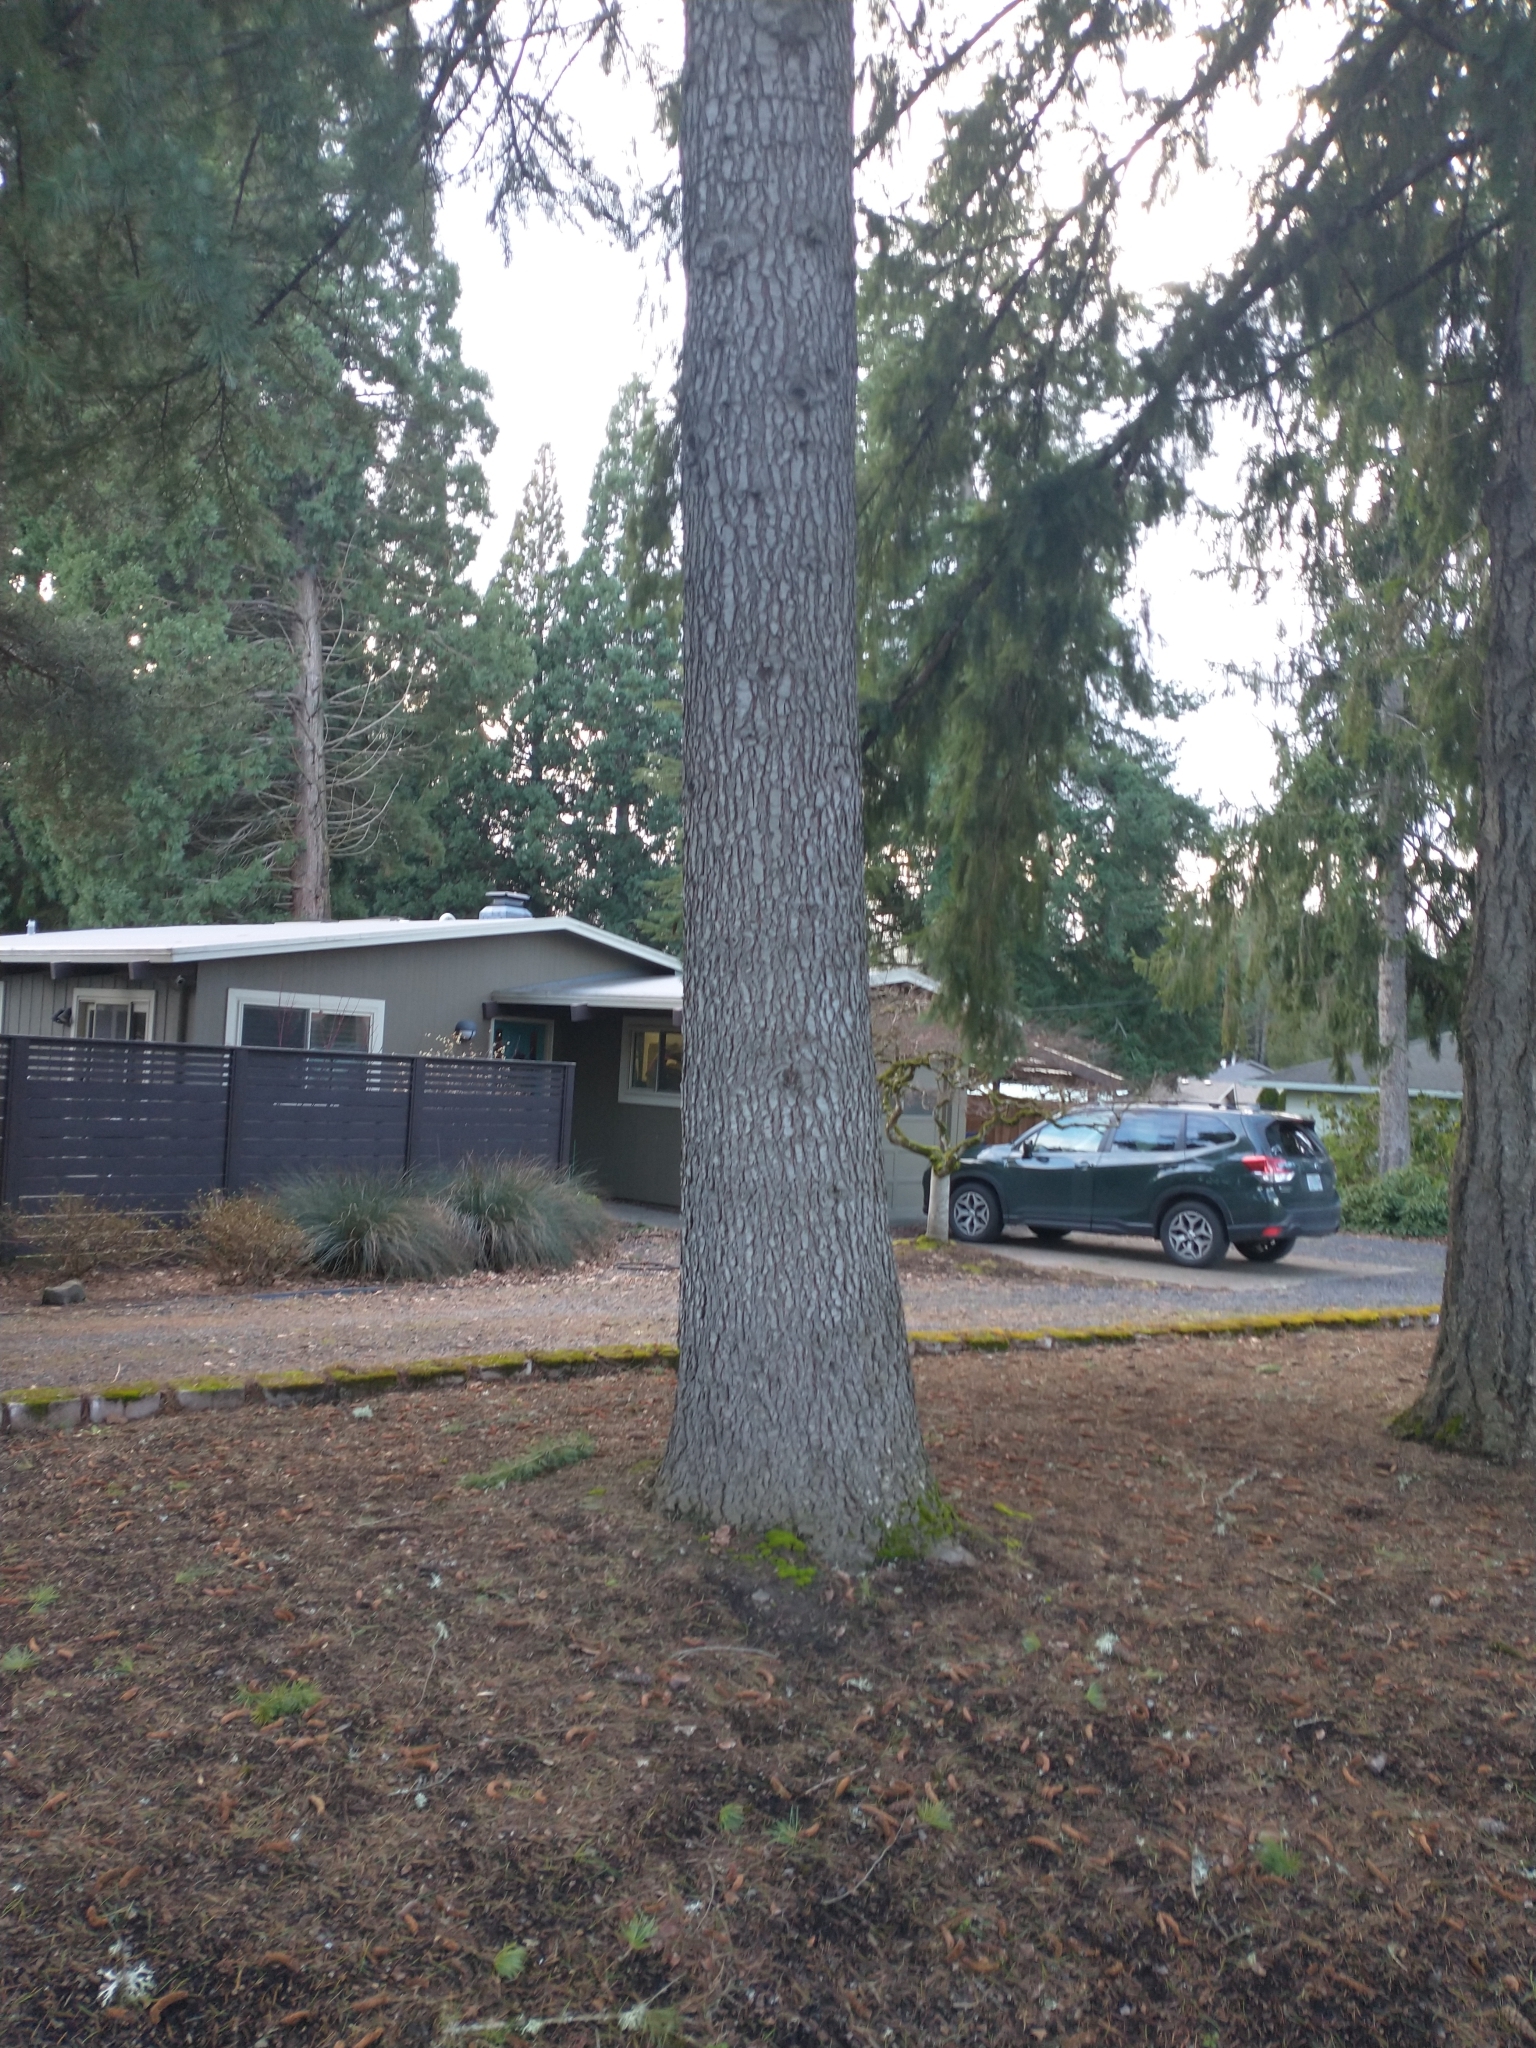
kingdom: Plantae
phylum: Tracheophyta
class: Pinopsida
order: Pinales
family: Pinaceae
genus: Cedrus
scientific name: Cedrus deodara
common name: Deodar
